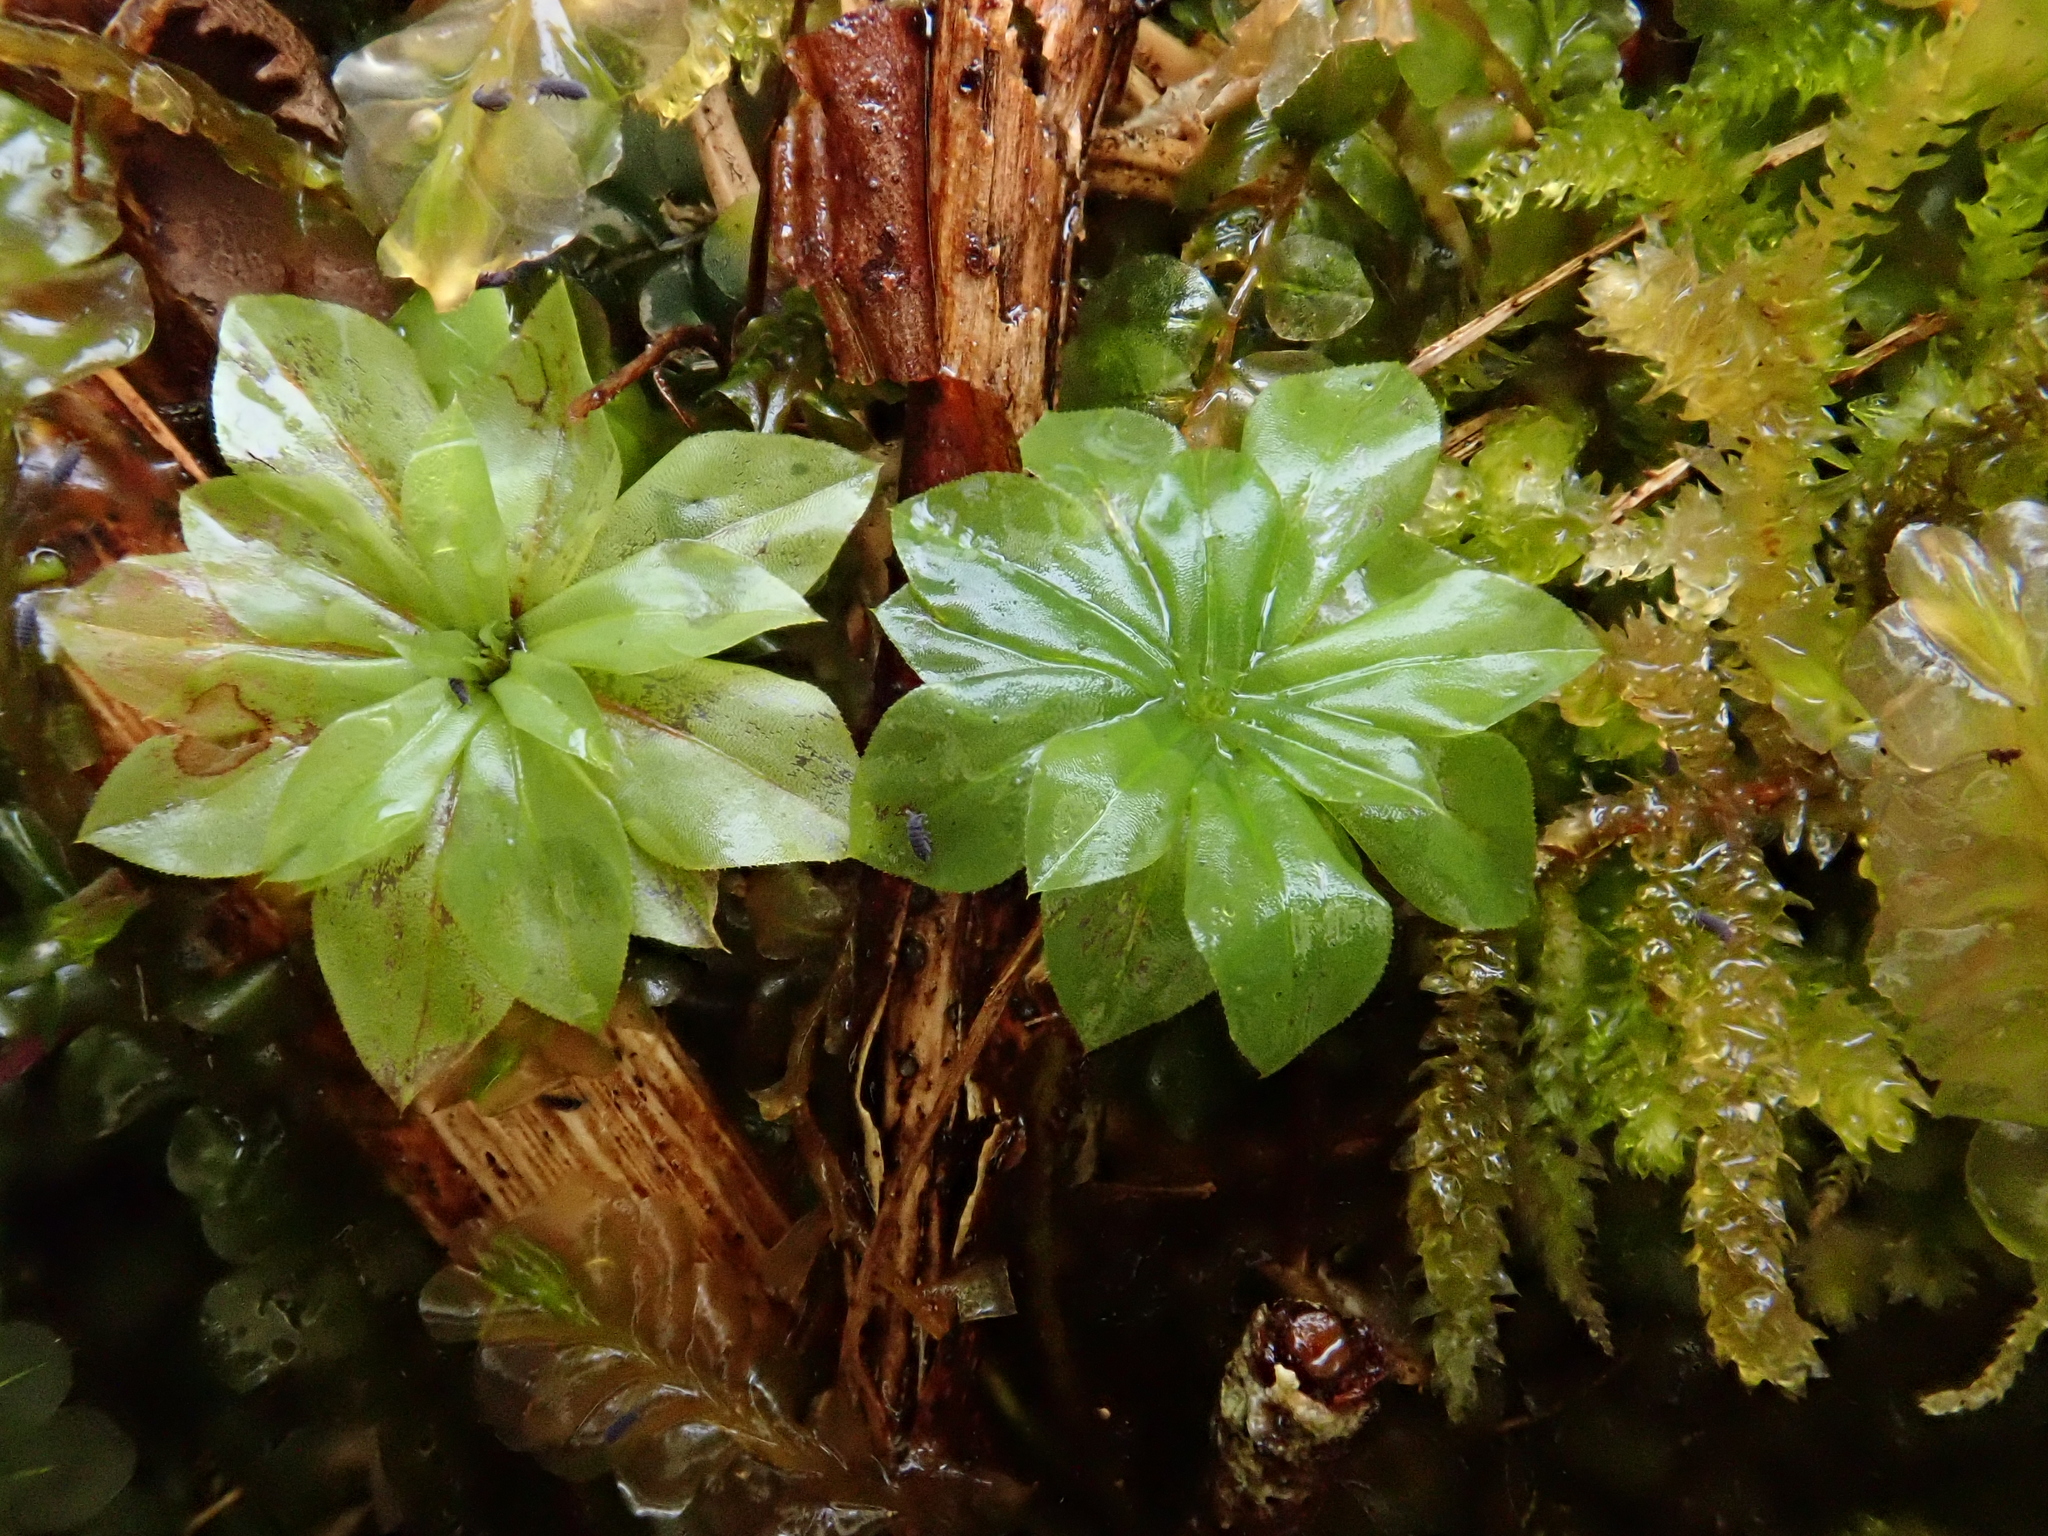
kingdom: Plantae
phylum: Bryophyta
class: Bryopsida
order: Bryales
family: Bryaceae
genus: Rhodobryum
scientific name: Rhodobryum roseum
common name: Rose-moss
